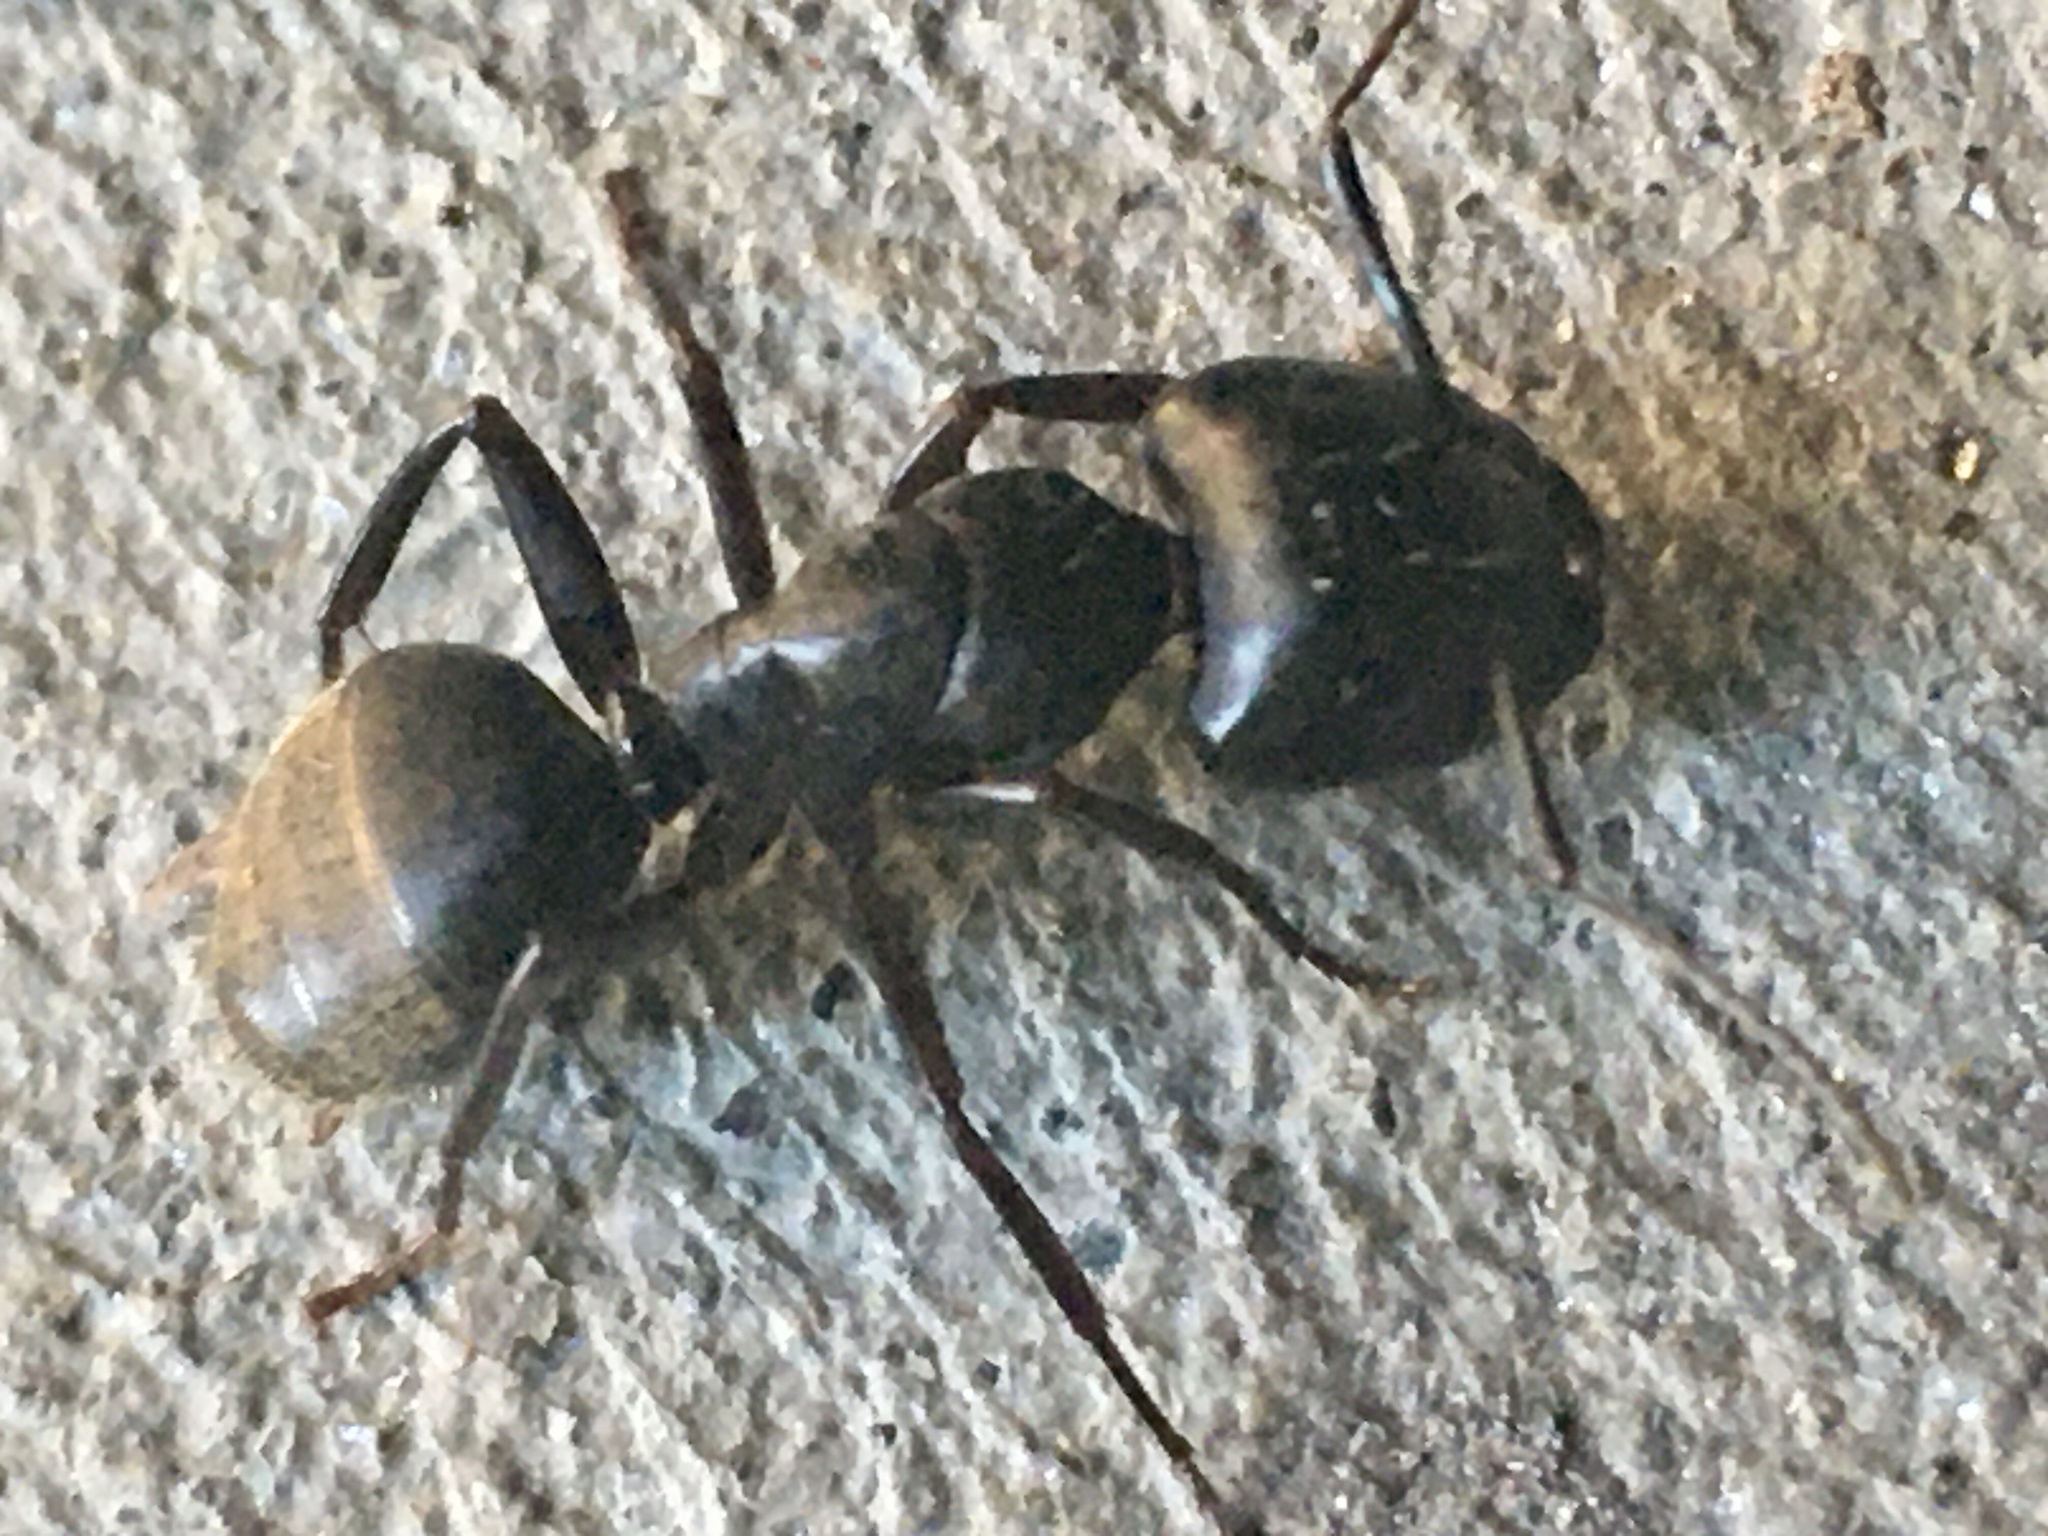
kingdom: Animalia
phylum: Arthropoda
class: Insecta
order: Hymenoptera
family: Formicidae
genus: Camponotus
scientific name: Camponotus pennsylvanicus
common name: Black carpenter ant
